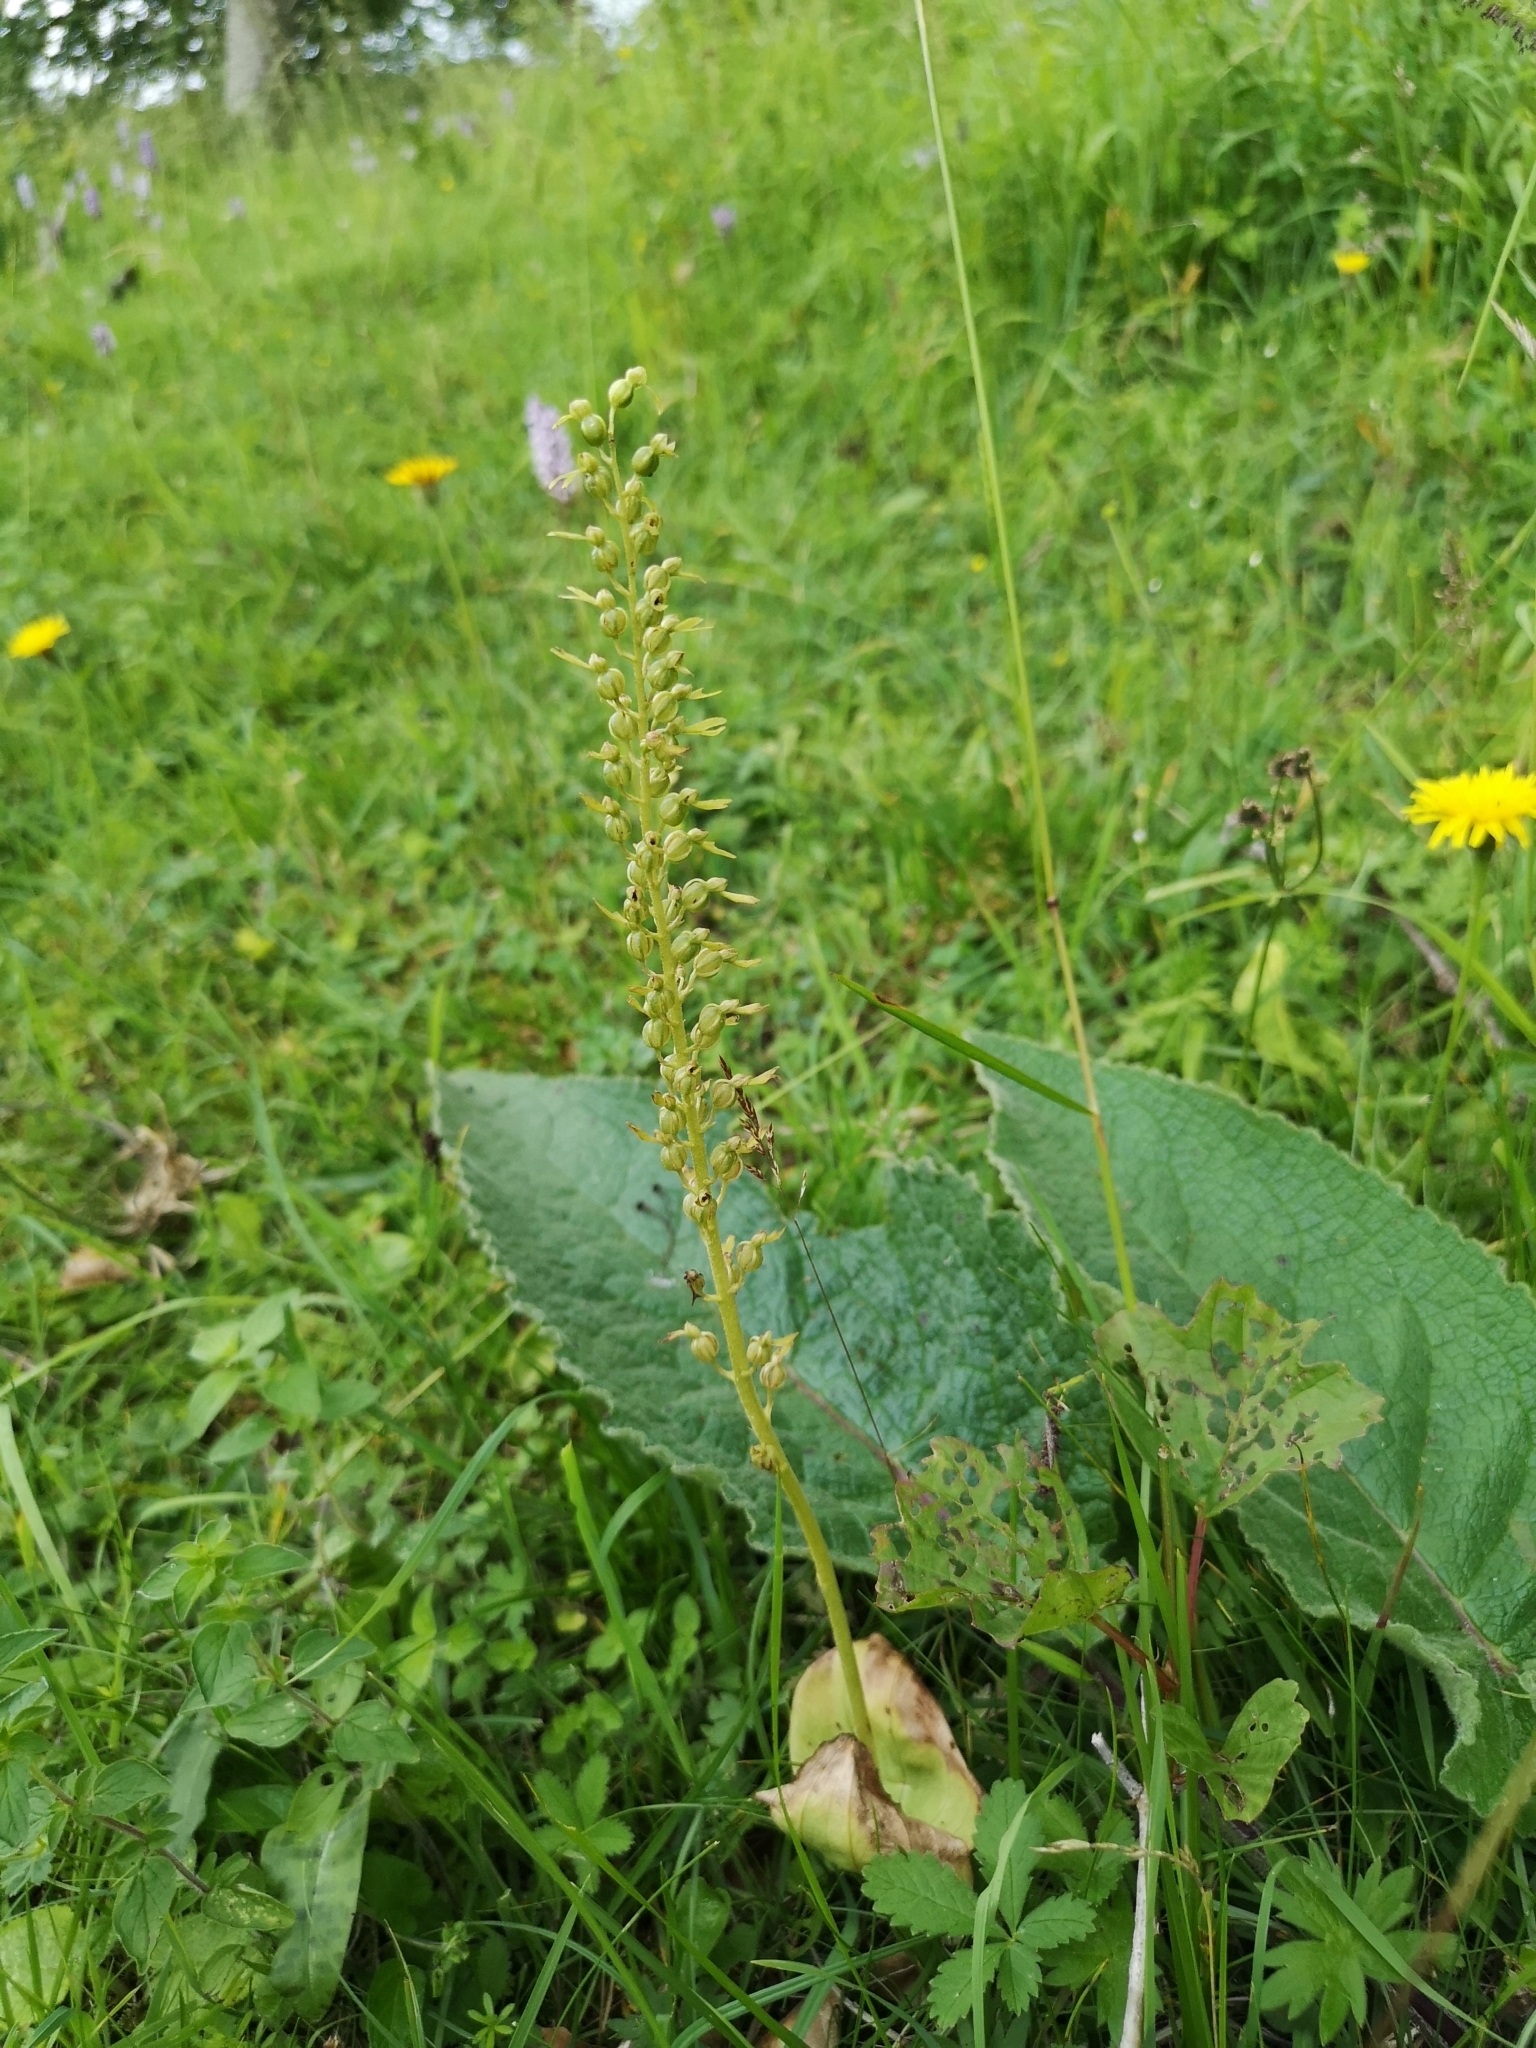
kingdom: Plantae
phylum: Tracheophyta
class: Liliopsida
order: Asparagales
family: Orchidaceae
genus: Neottia
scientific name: Neottia ovata
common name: Common twayblade
